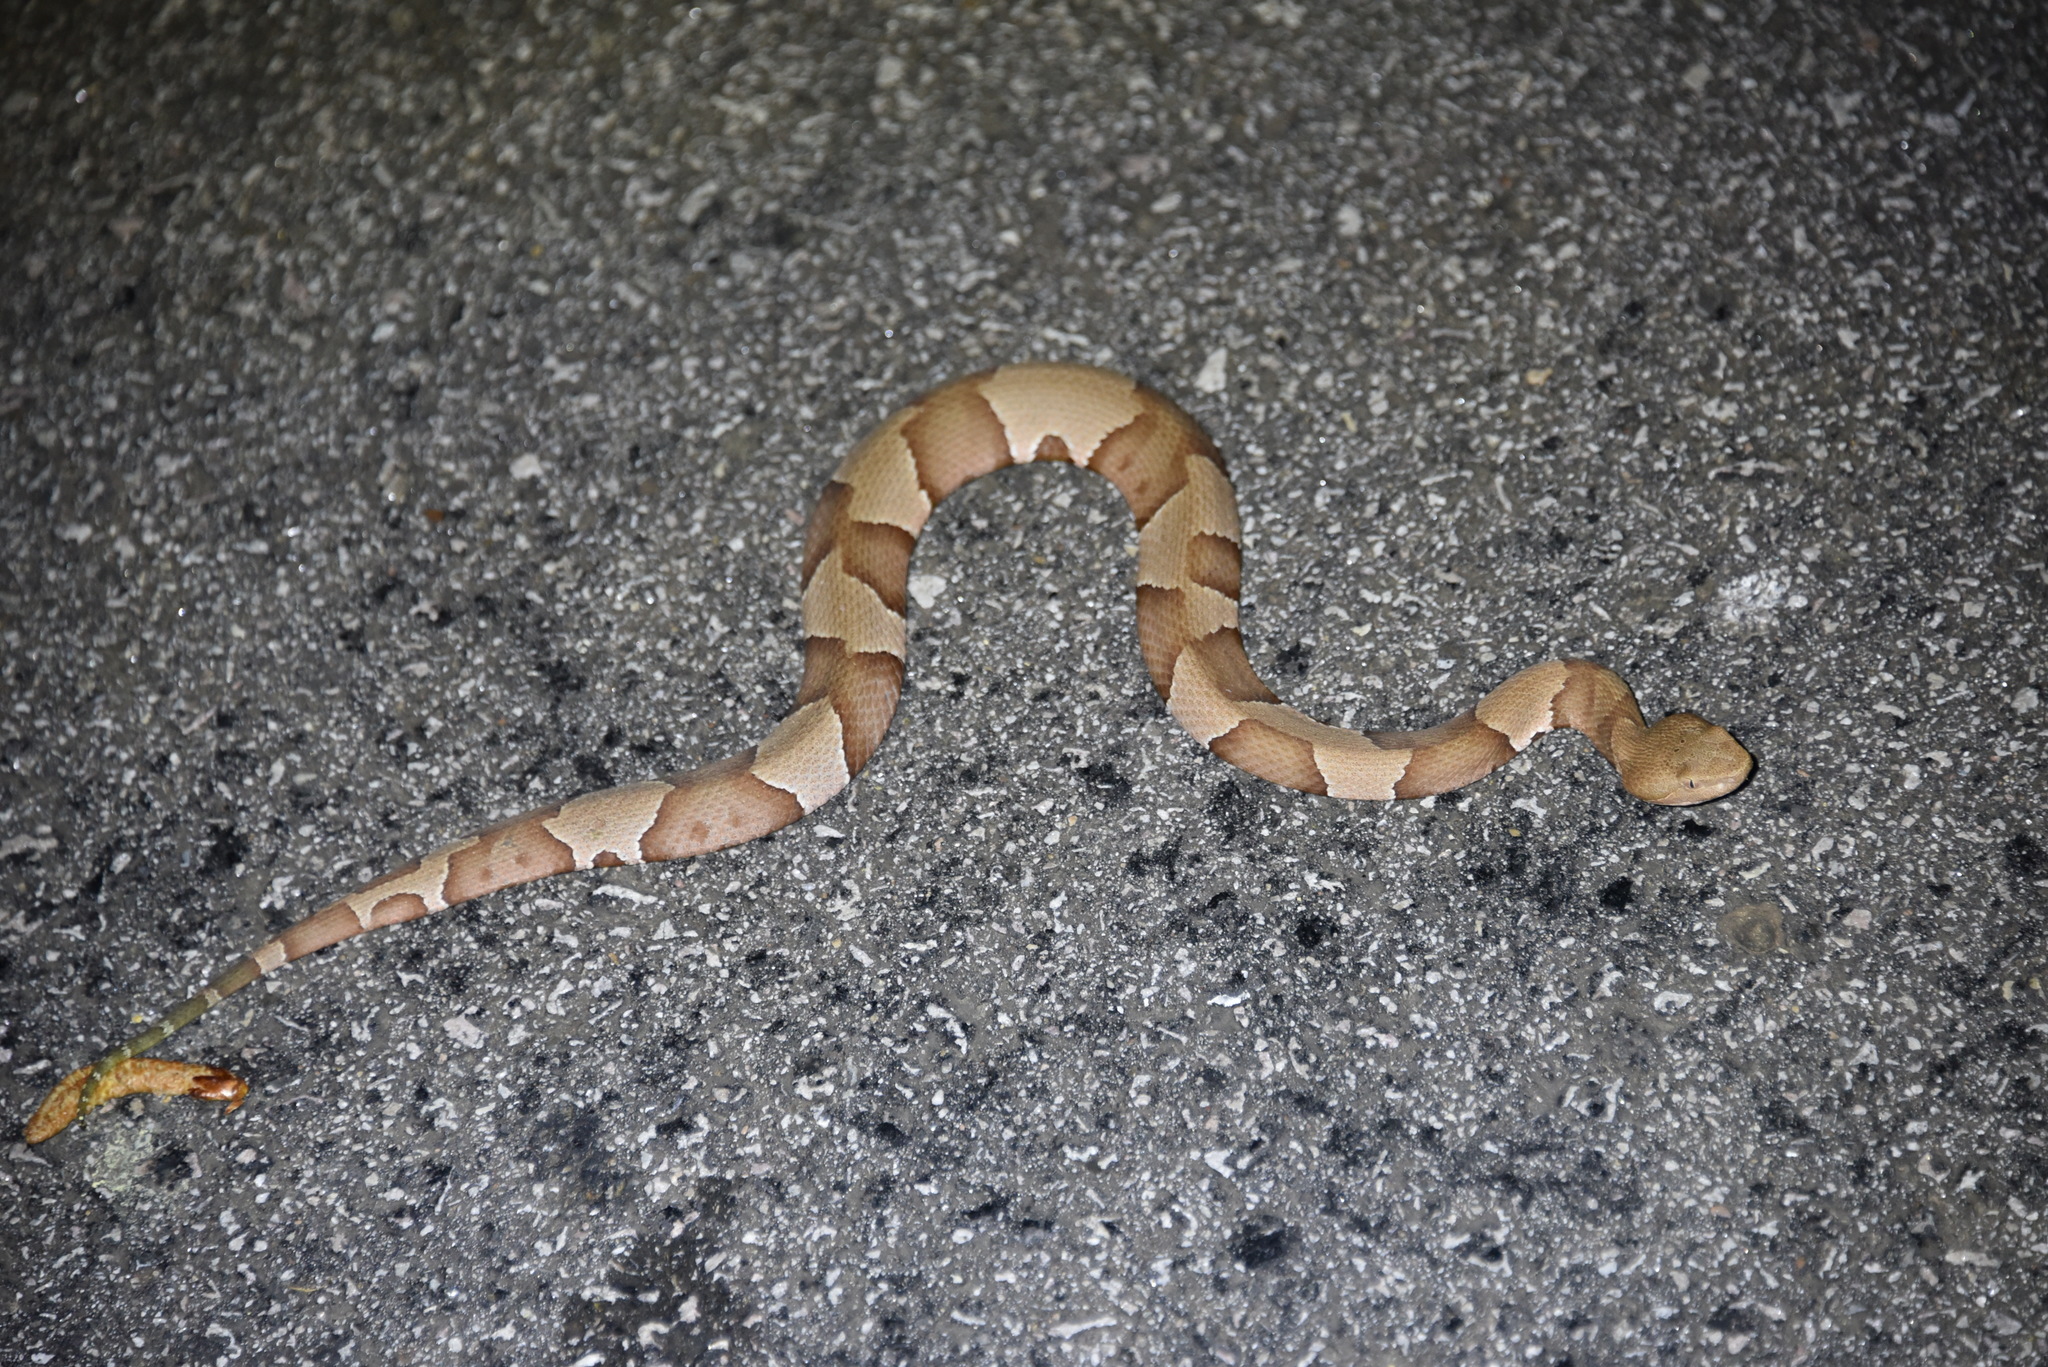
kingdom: Animalia
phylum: Chordata
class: Squamata
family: Viperidae
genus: Agkistrodon
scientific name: Agkistrodon laticinctus
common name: Broad-banded copperhead
